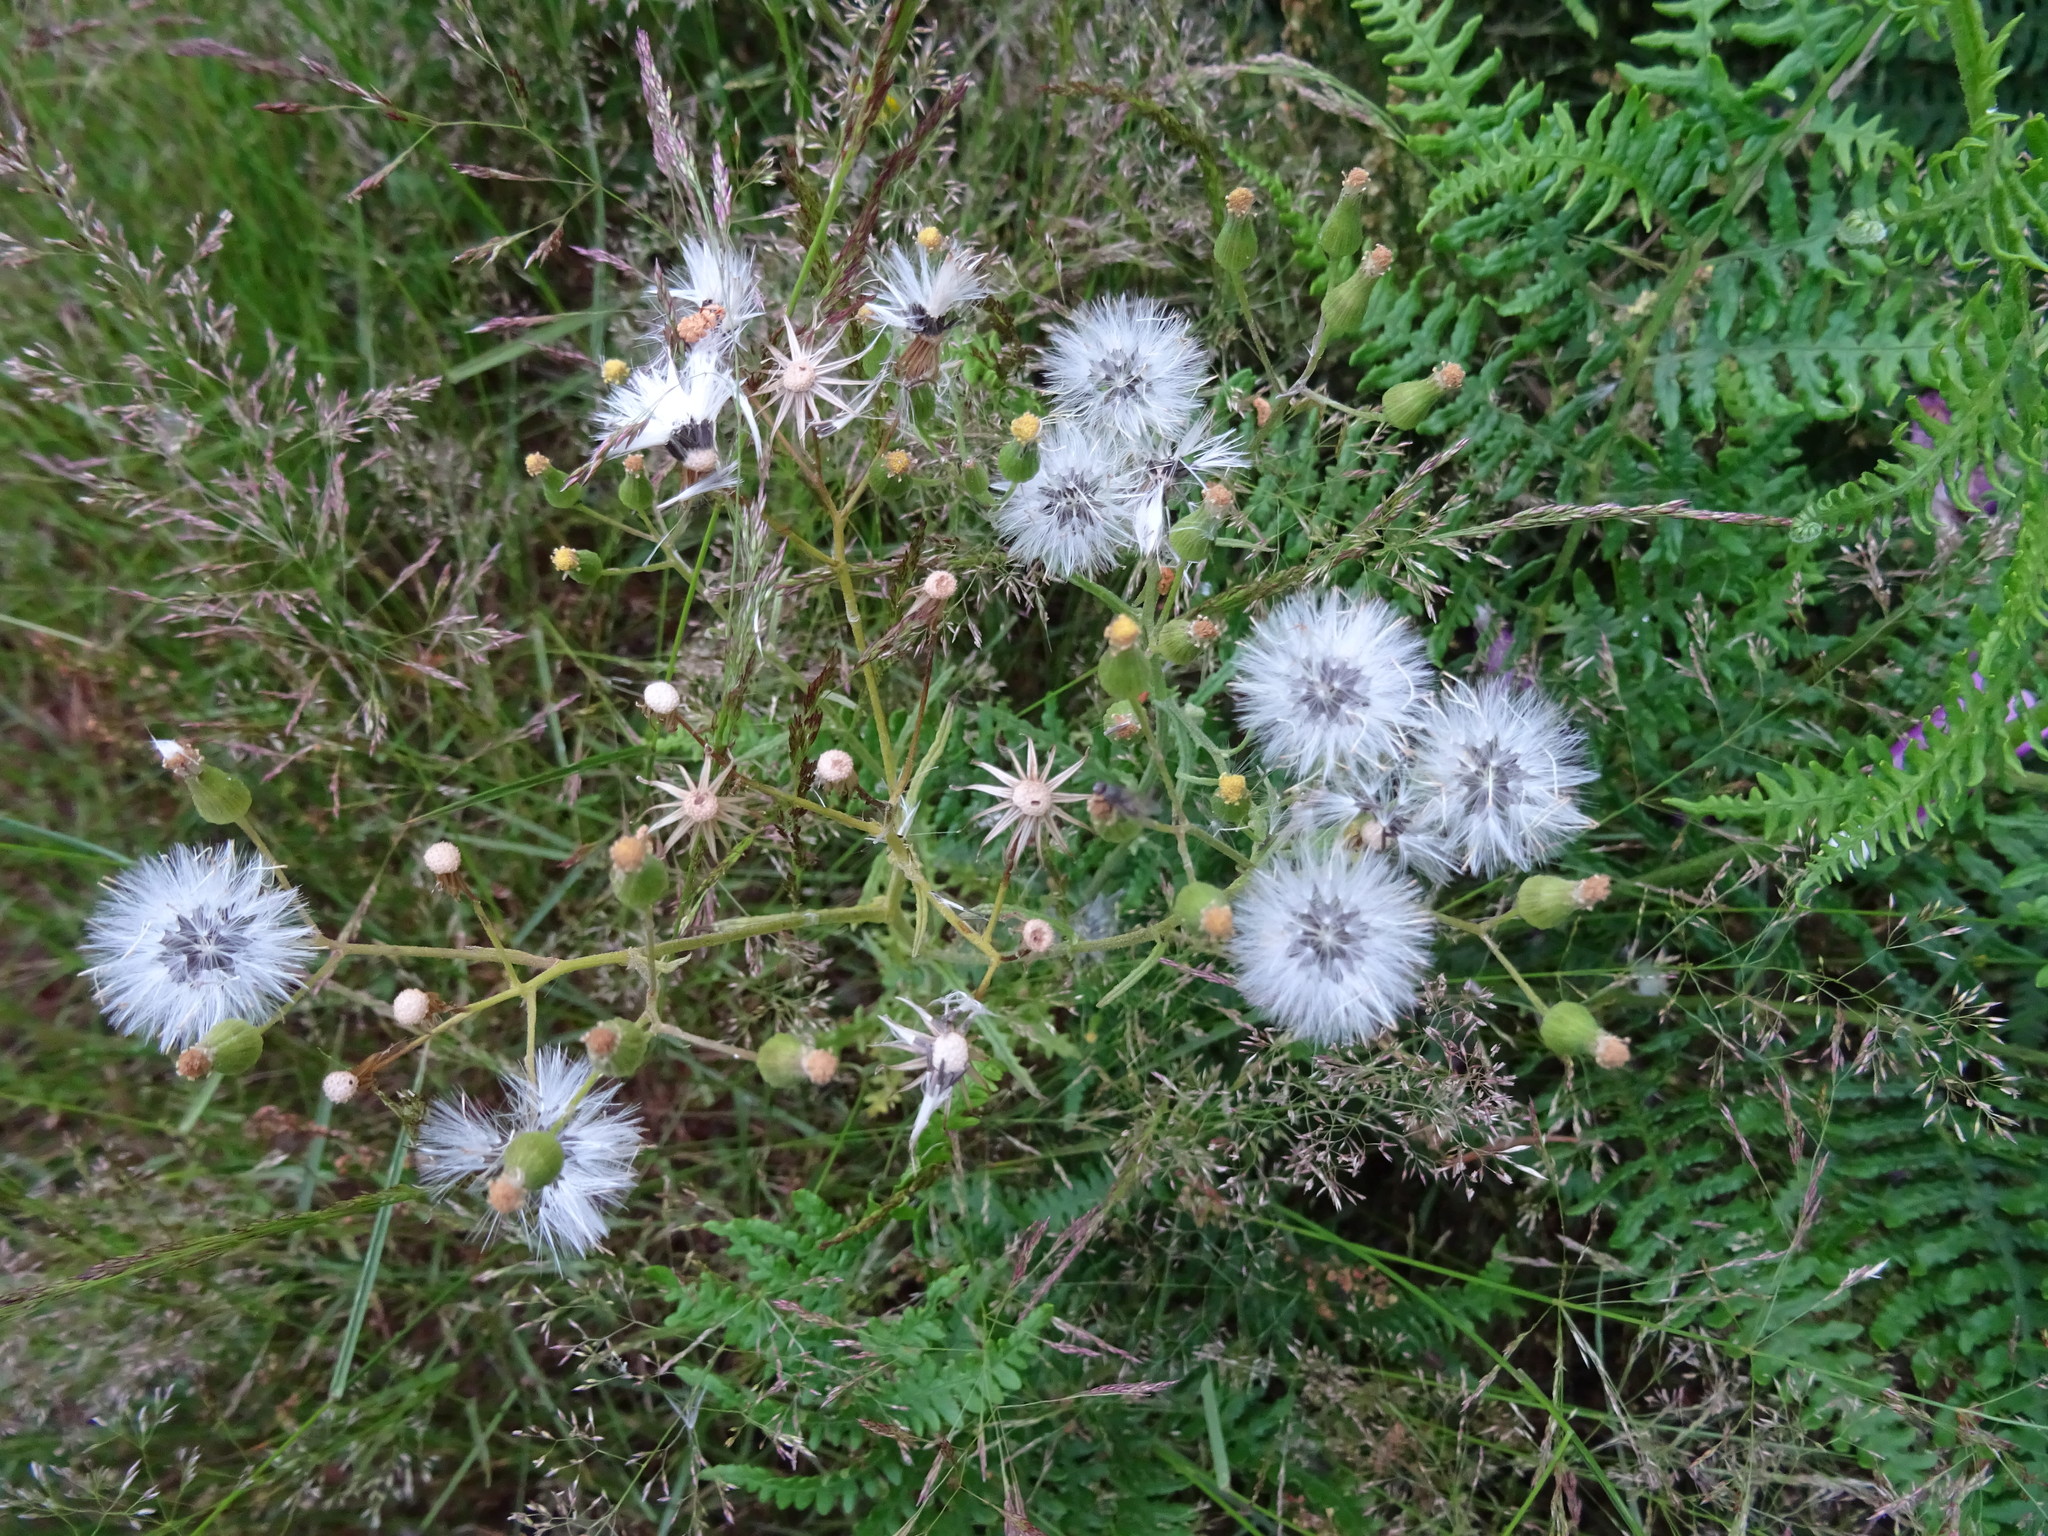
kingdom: Plantae
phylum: Tracheophyta
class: Magnoliopsida
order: Asterales
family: Asteraceae
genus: Senecio
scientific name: Senecio vulgaris
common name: Old-man-in-the-spring
